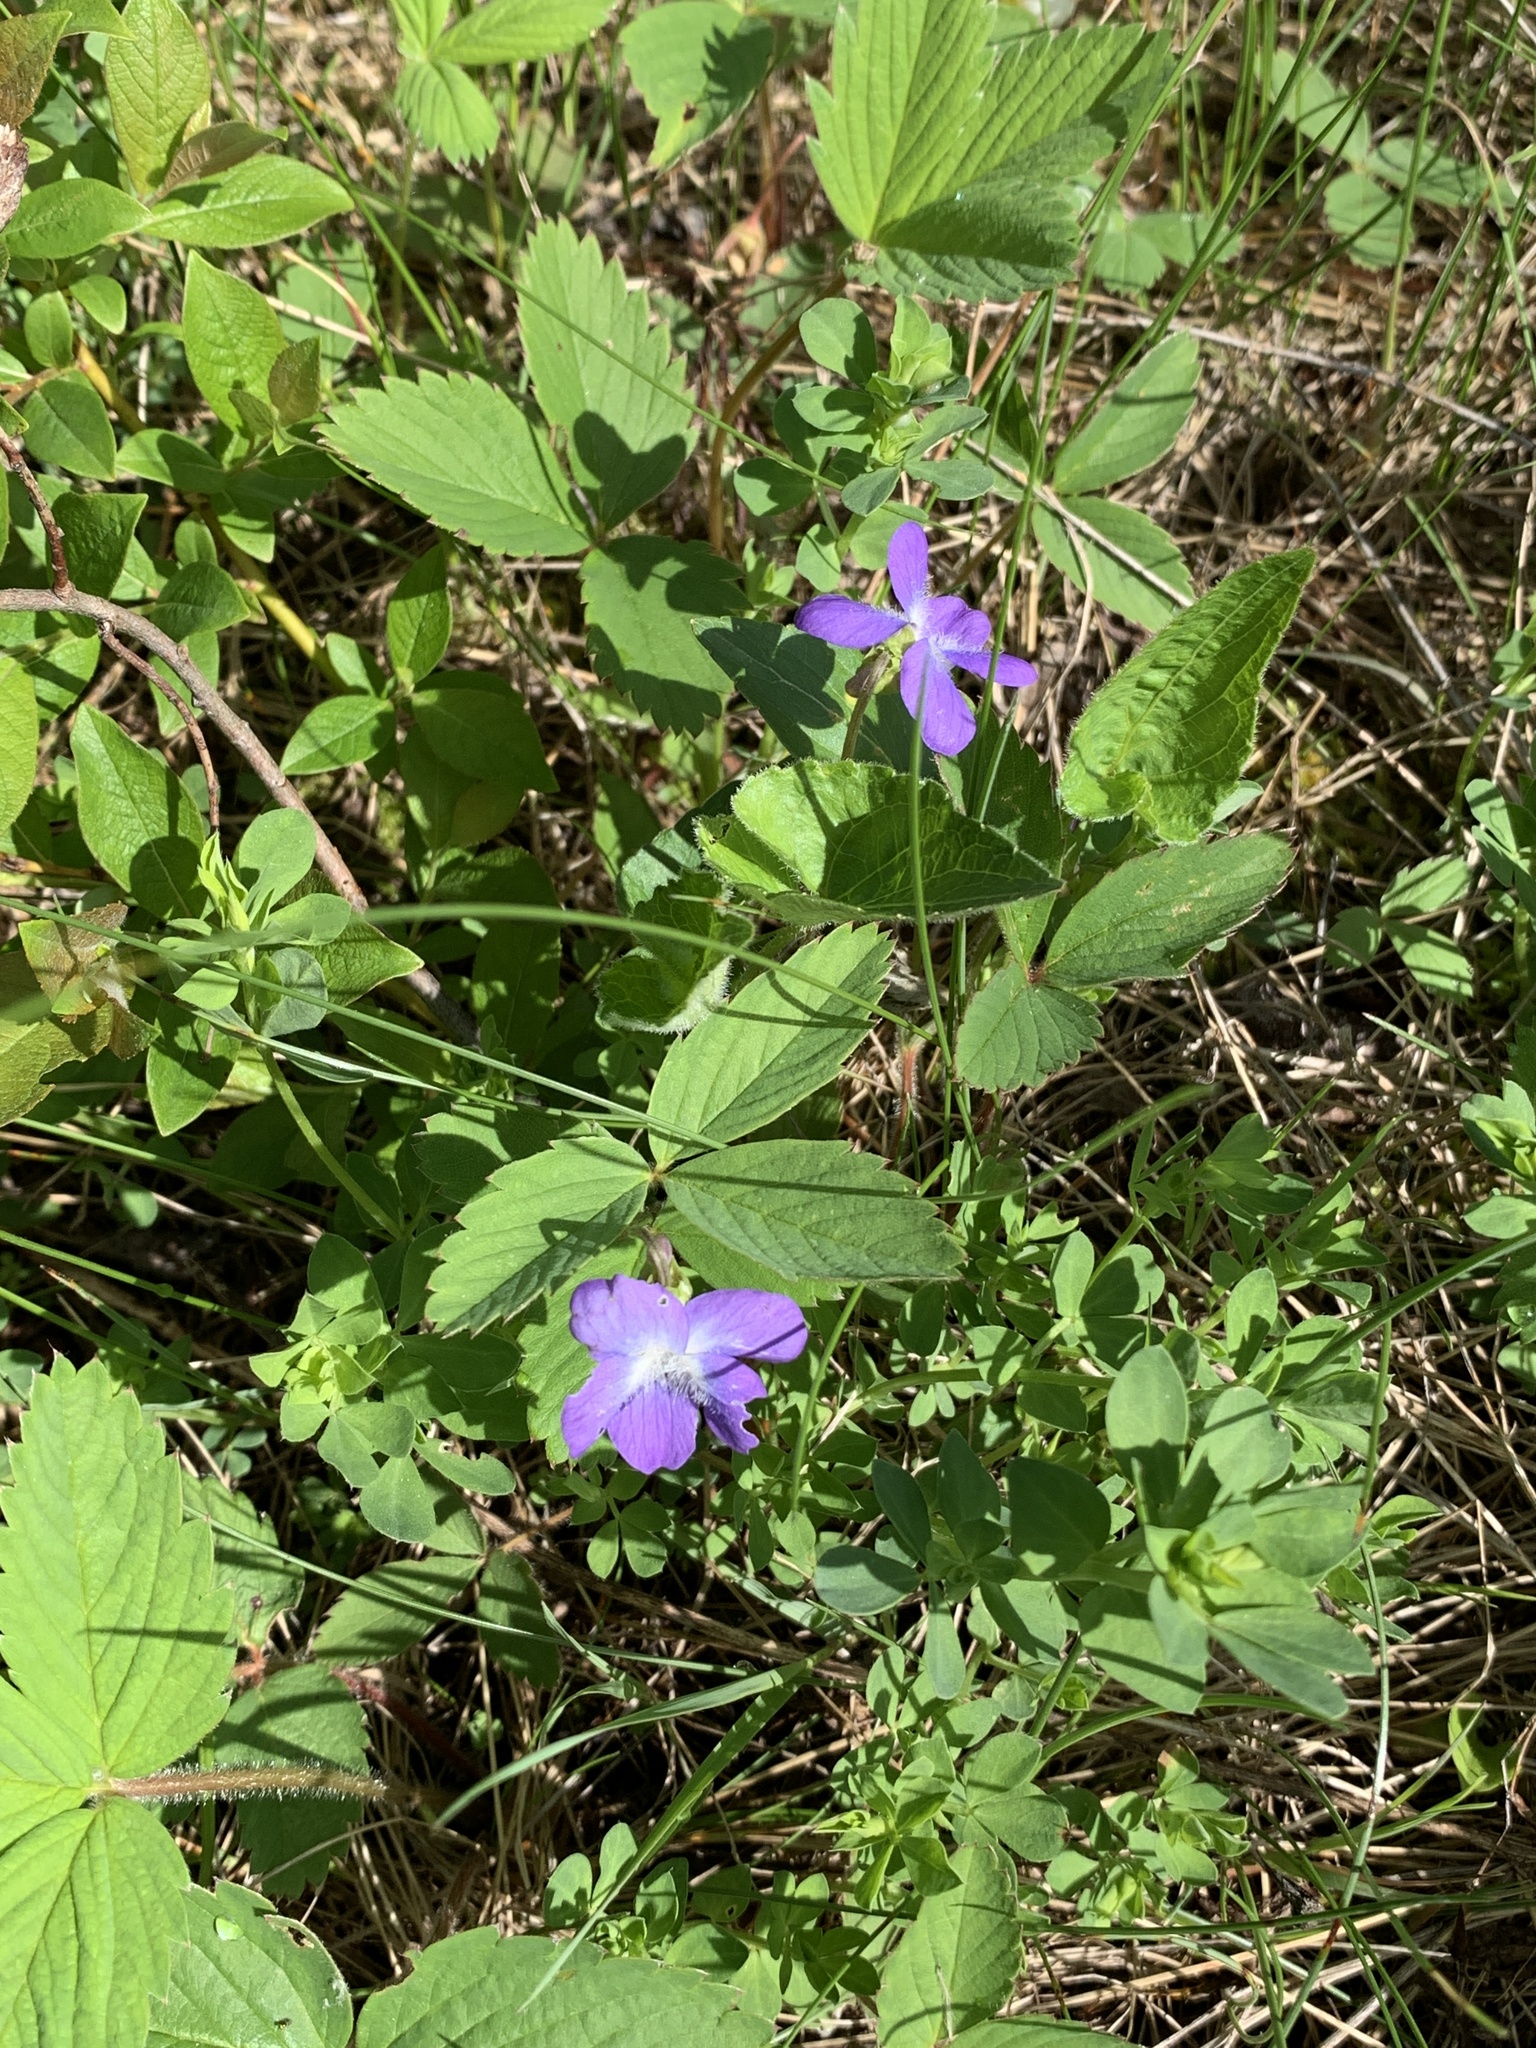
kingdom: Plantae
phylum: Tracheophyta
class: Magnoliopsida
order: Malpighiales
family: Violaceae
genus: Viola
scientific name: Viola novae-angliae
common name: New england blue violet
